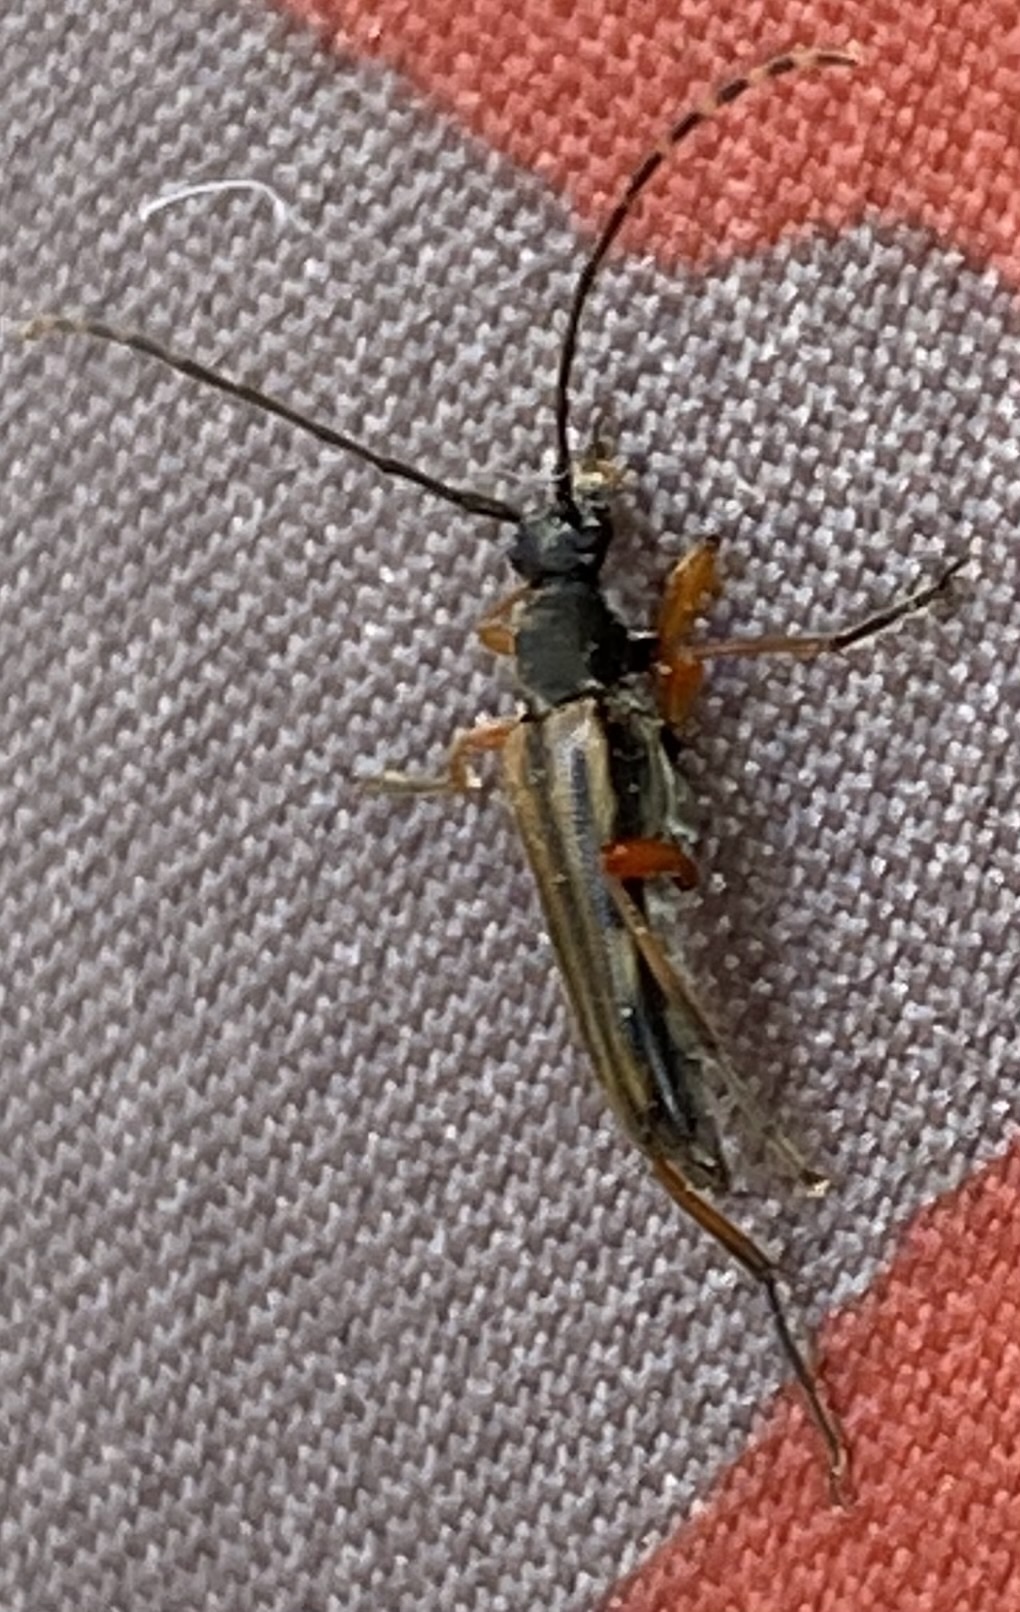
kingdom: Animalia
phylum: Arthropoda
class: Insecta
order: Coleoptera
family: Cerambycidae
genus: Analeptura
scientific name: Analeptura lineola
